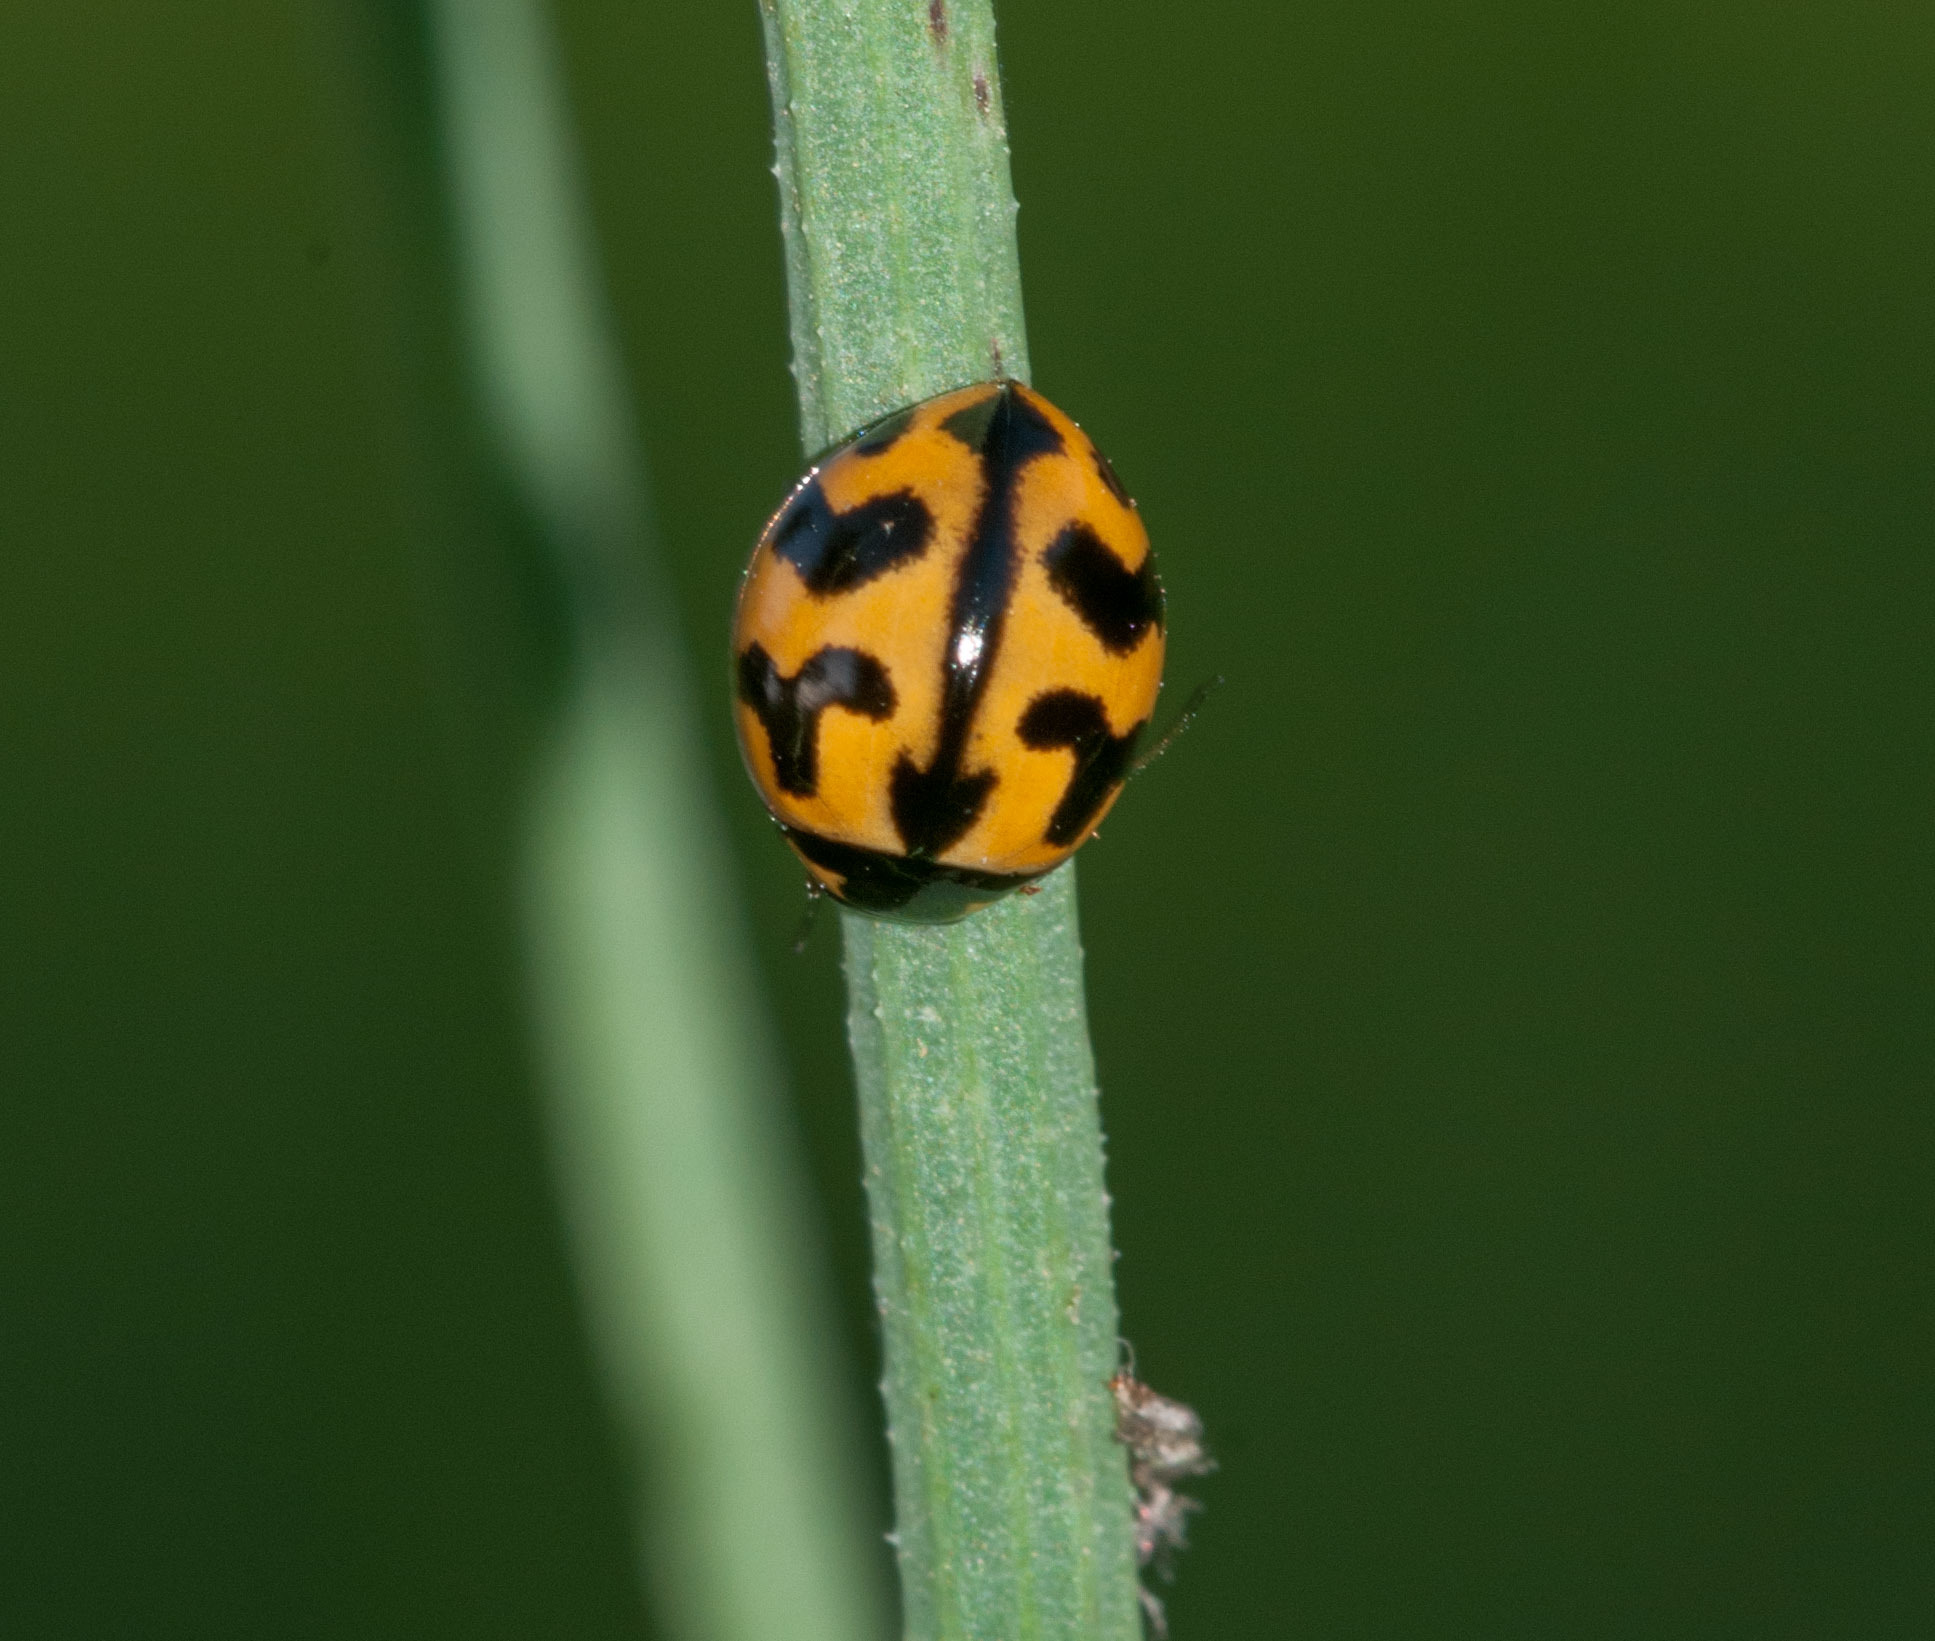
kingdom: Animalia
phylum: Arthropoda
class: Insecta
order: Coleoptera
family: Coccinellidae
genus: Coccinella
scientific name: Coccinella transversalis
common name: Transverse lady beetle
